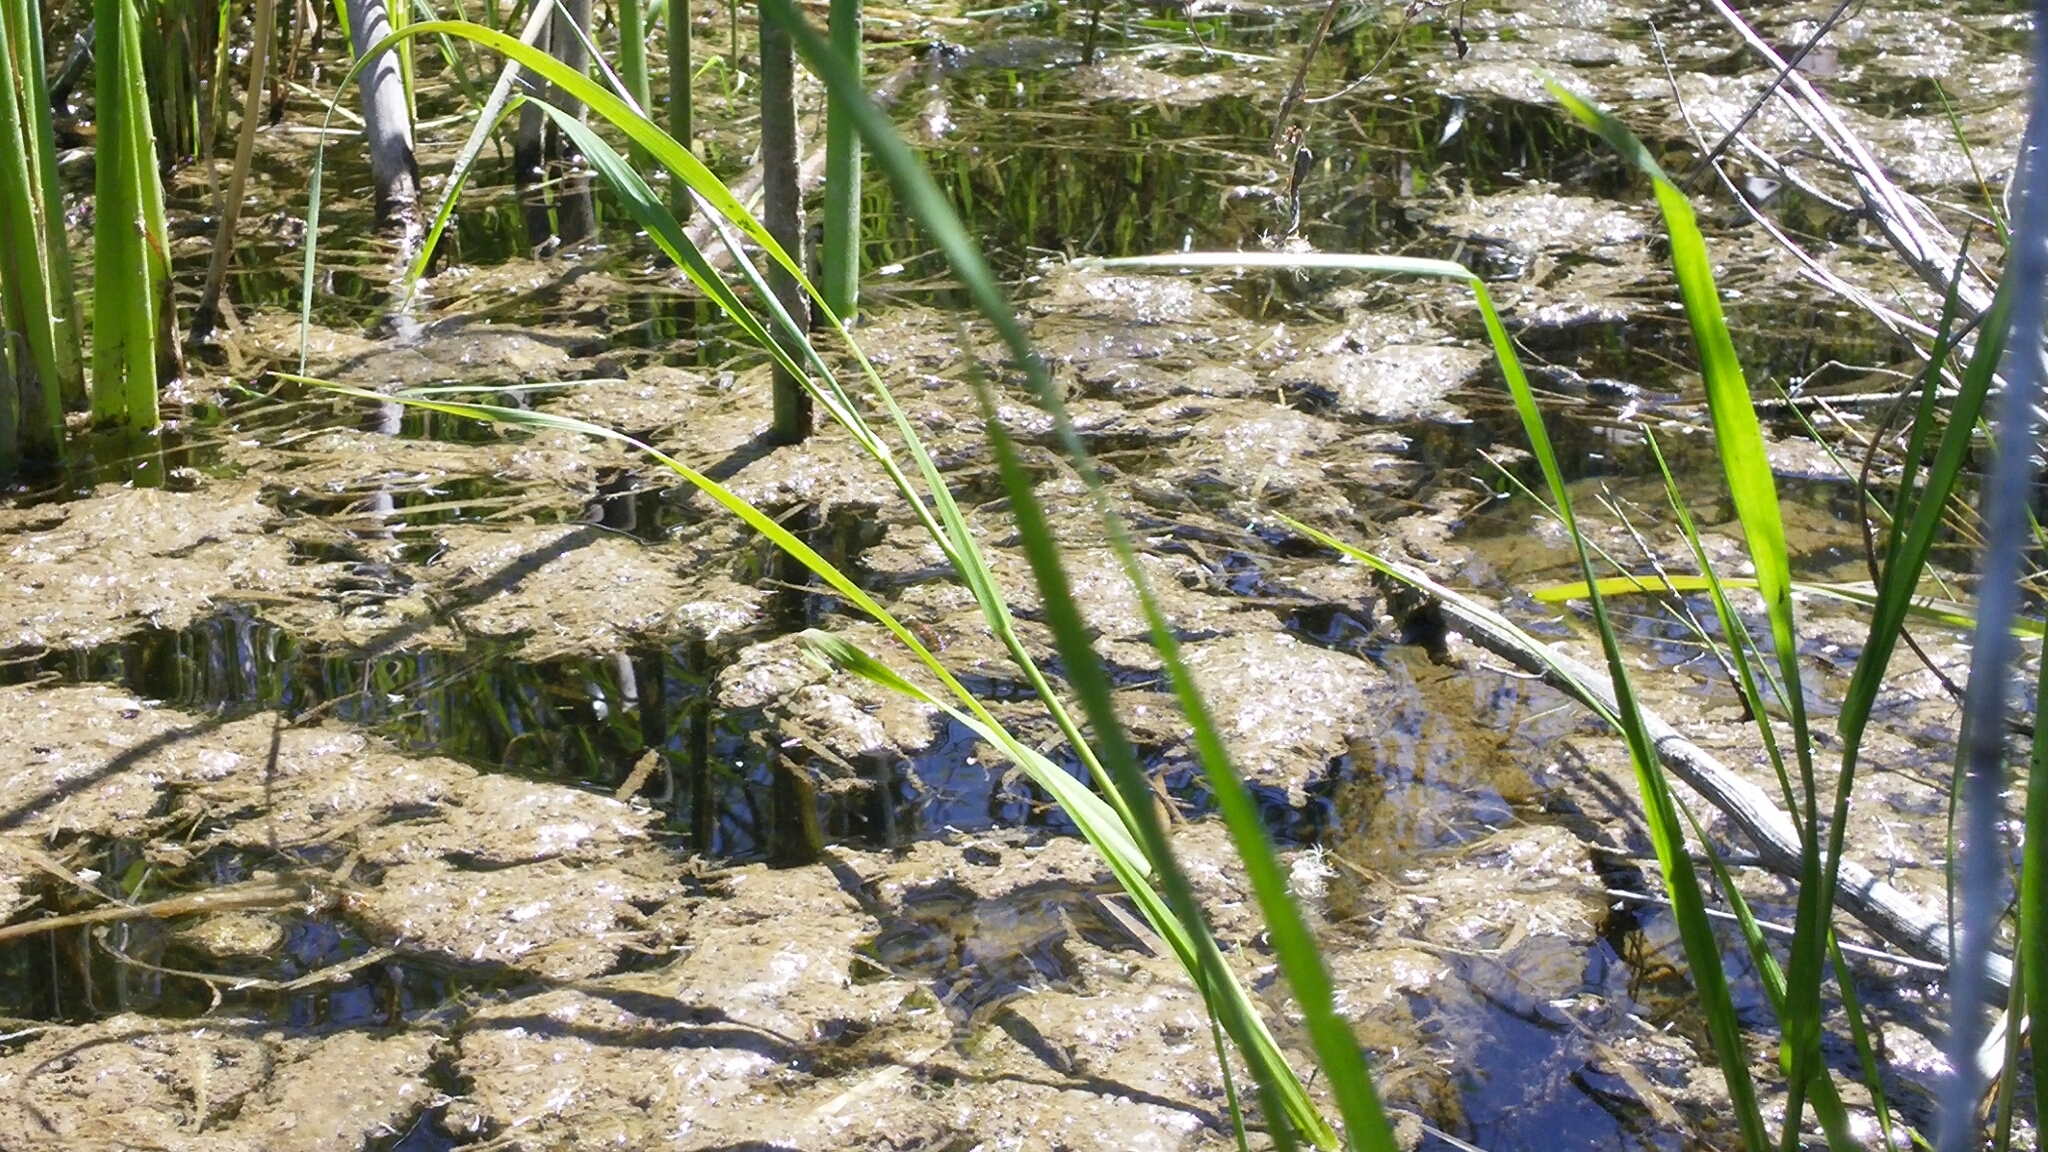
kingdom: Animalia
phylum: Chordata
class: Squamata
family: Colubridae
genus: Thamnophis
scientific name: Thamnophis hammondii
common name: Two-striped garter snake
